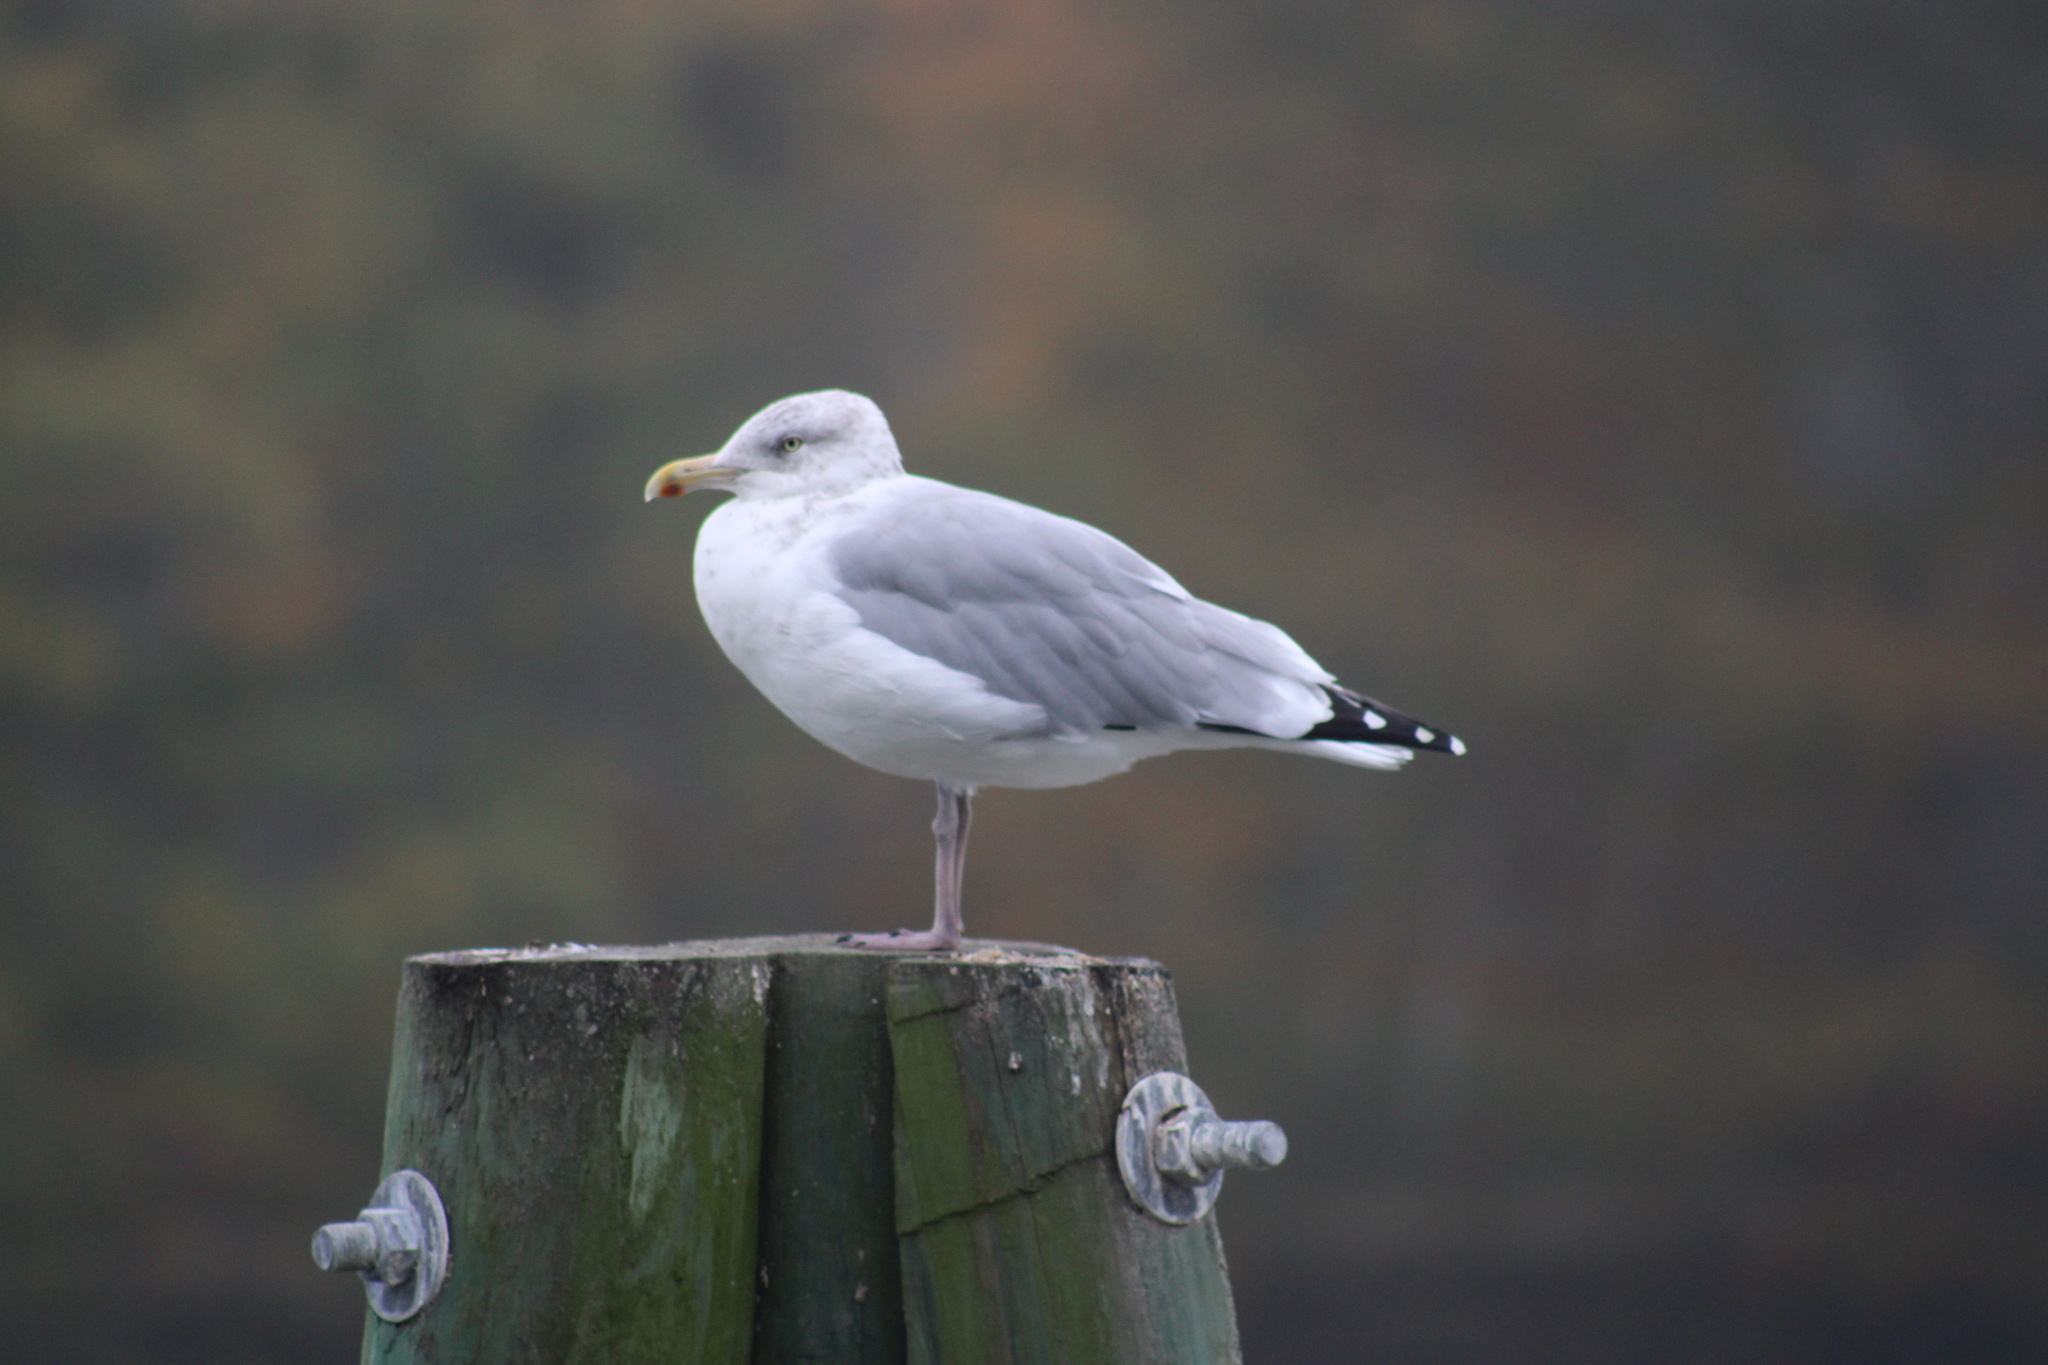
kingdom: Animalia
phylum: Chordata
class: Aves
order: Charadriiformes
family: Laridae
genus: Larus
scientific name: Larus argentatus
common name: Herring gull
